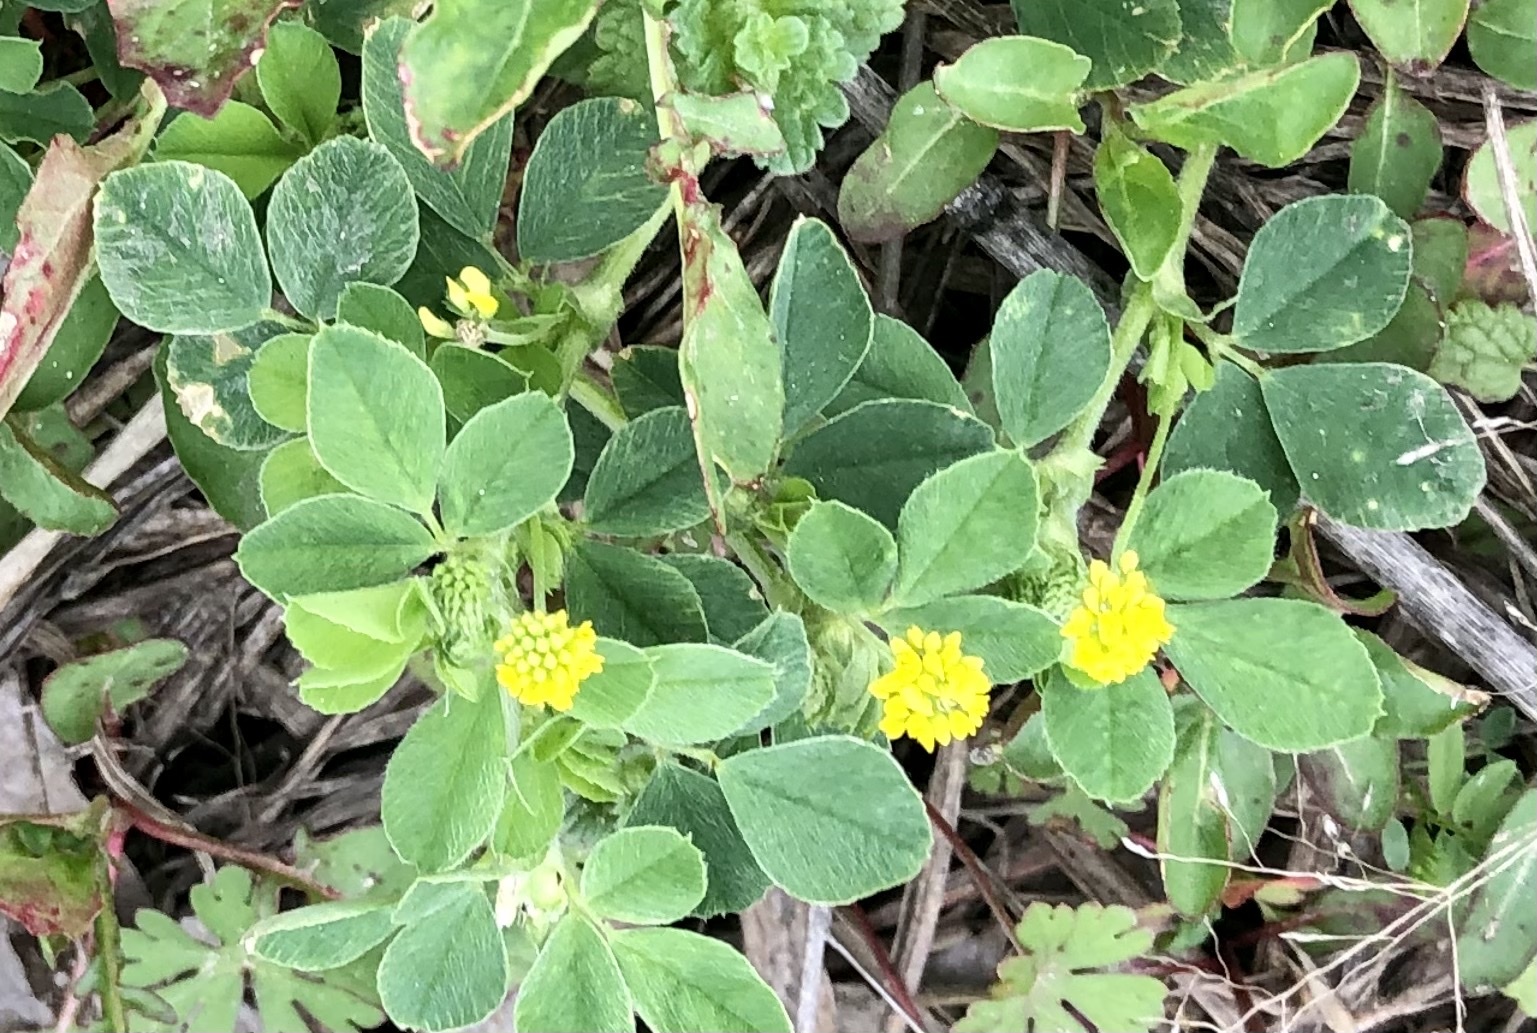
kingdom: Plantae
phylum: Tracheophyta
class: Magnoliopsida
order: Fabales
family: Fabaceae
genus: Medicago
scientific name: Medicago lupulina
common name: Black medick
